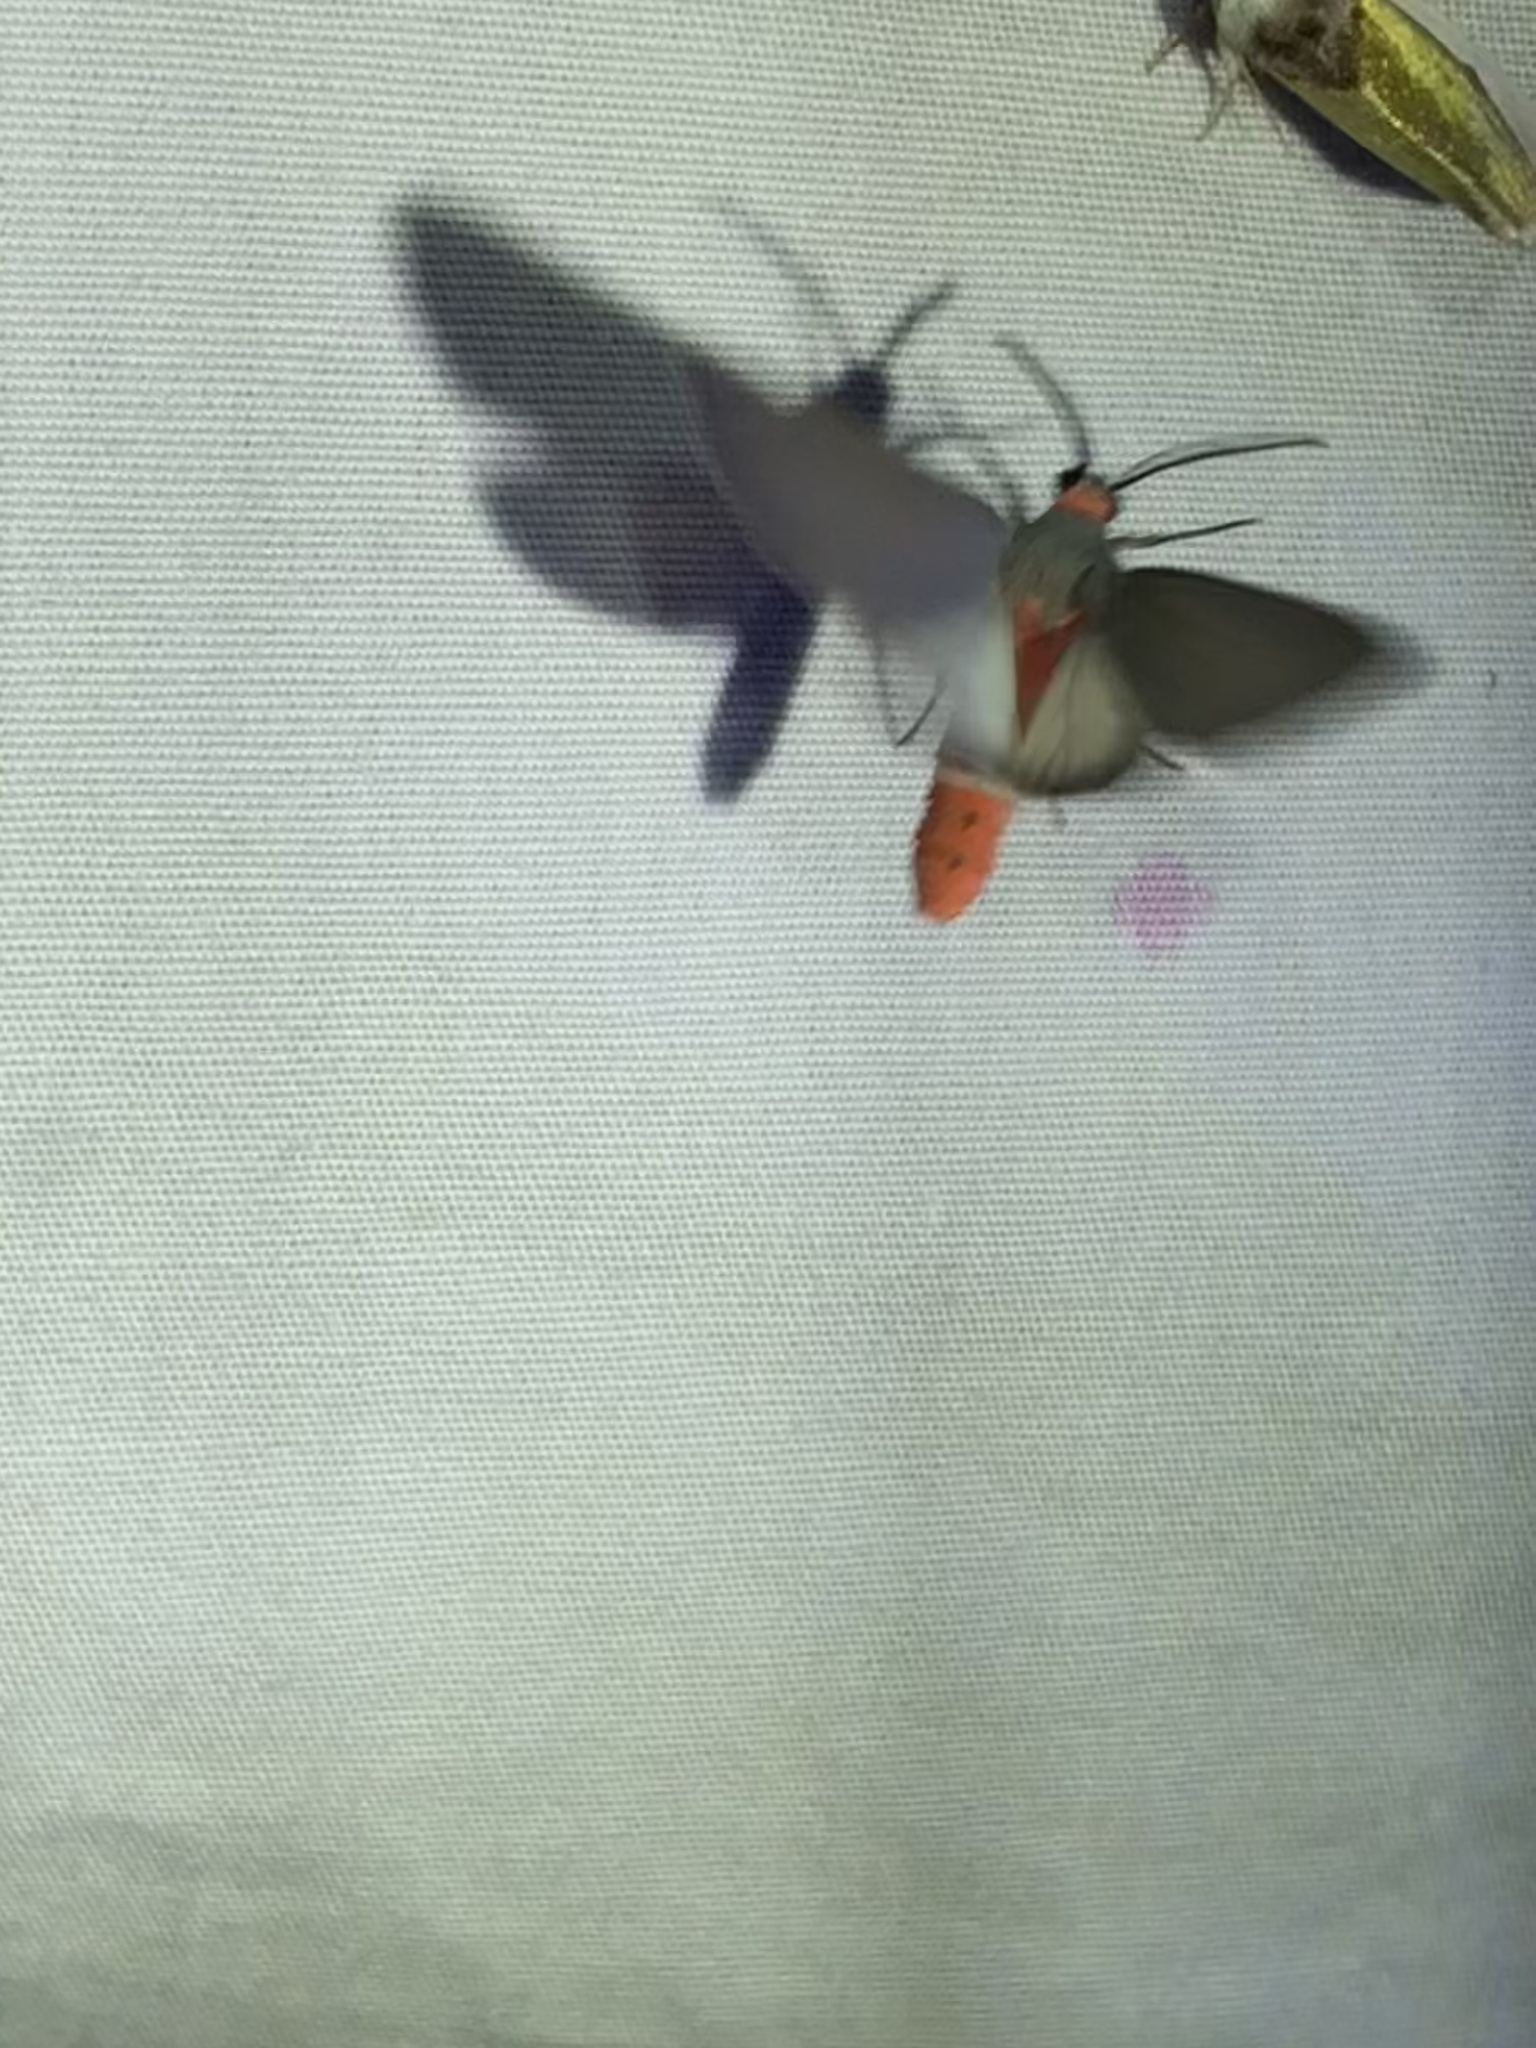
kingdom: Animalia
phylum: Arthropoda
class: Insecta
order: Lepidoptera
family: Erebidae
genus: Pygarctia
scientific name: Pygarctia murina
